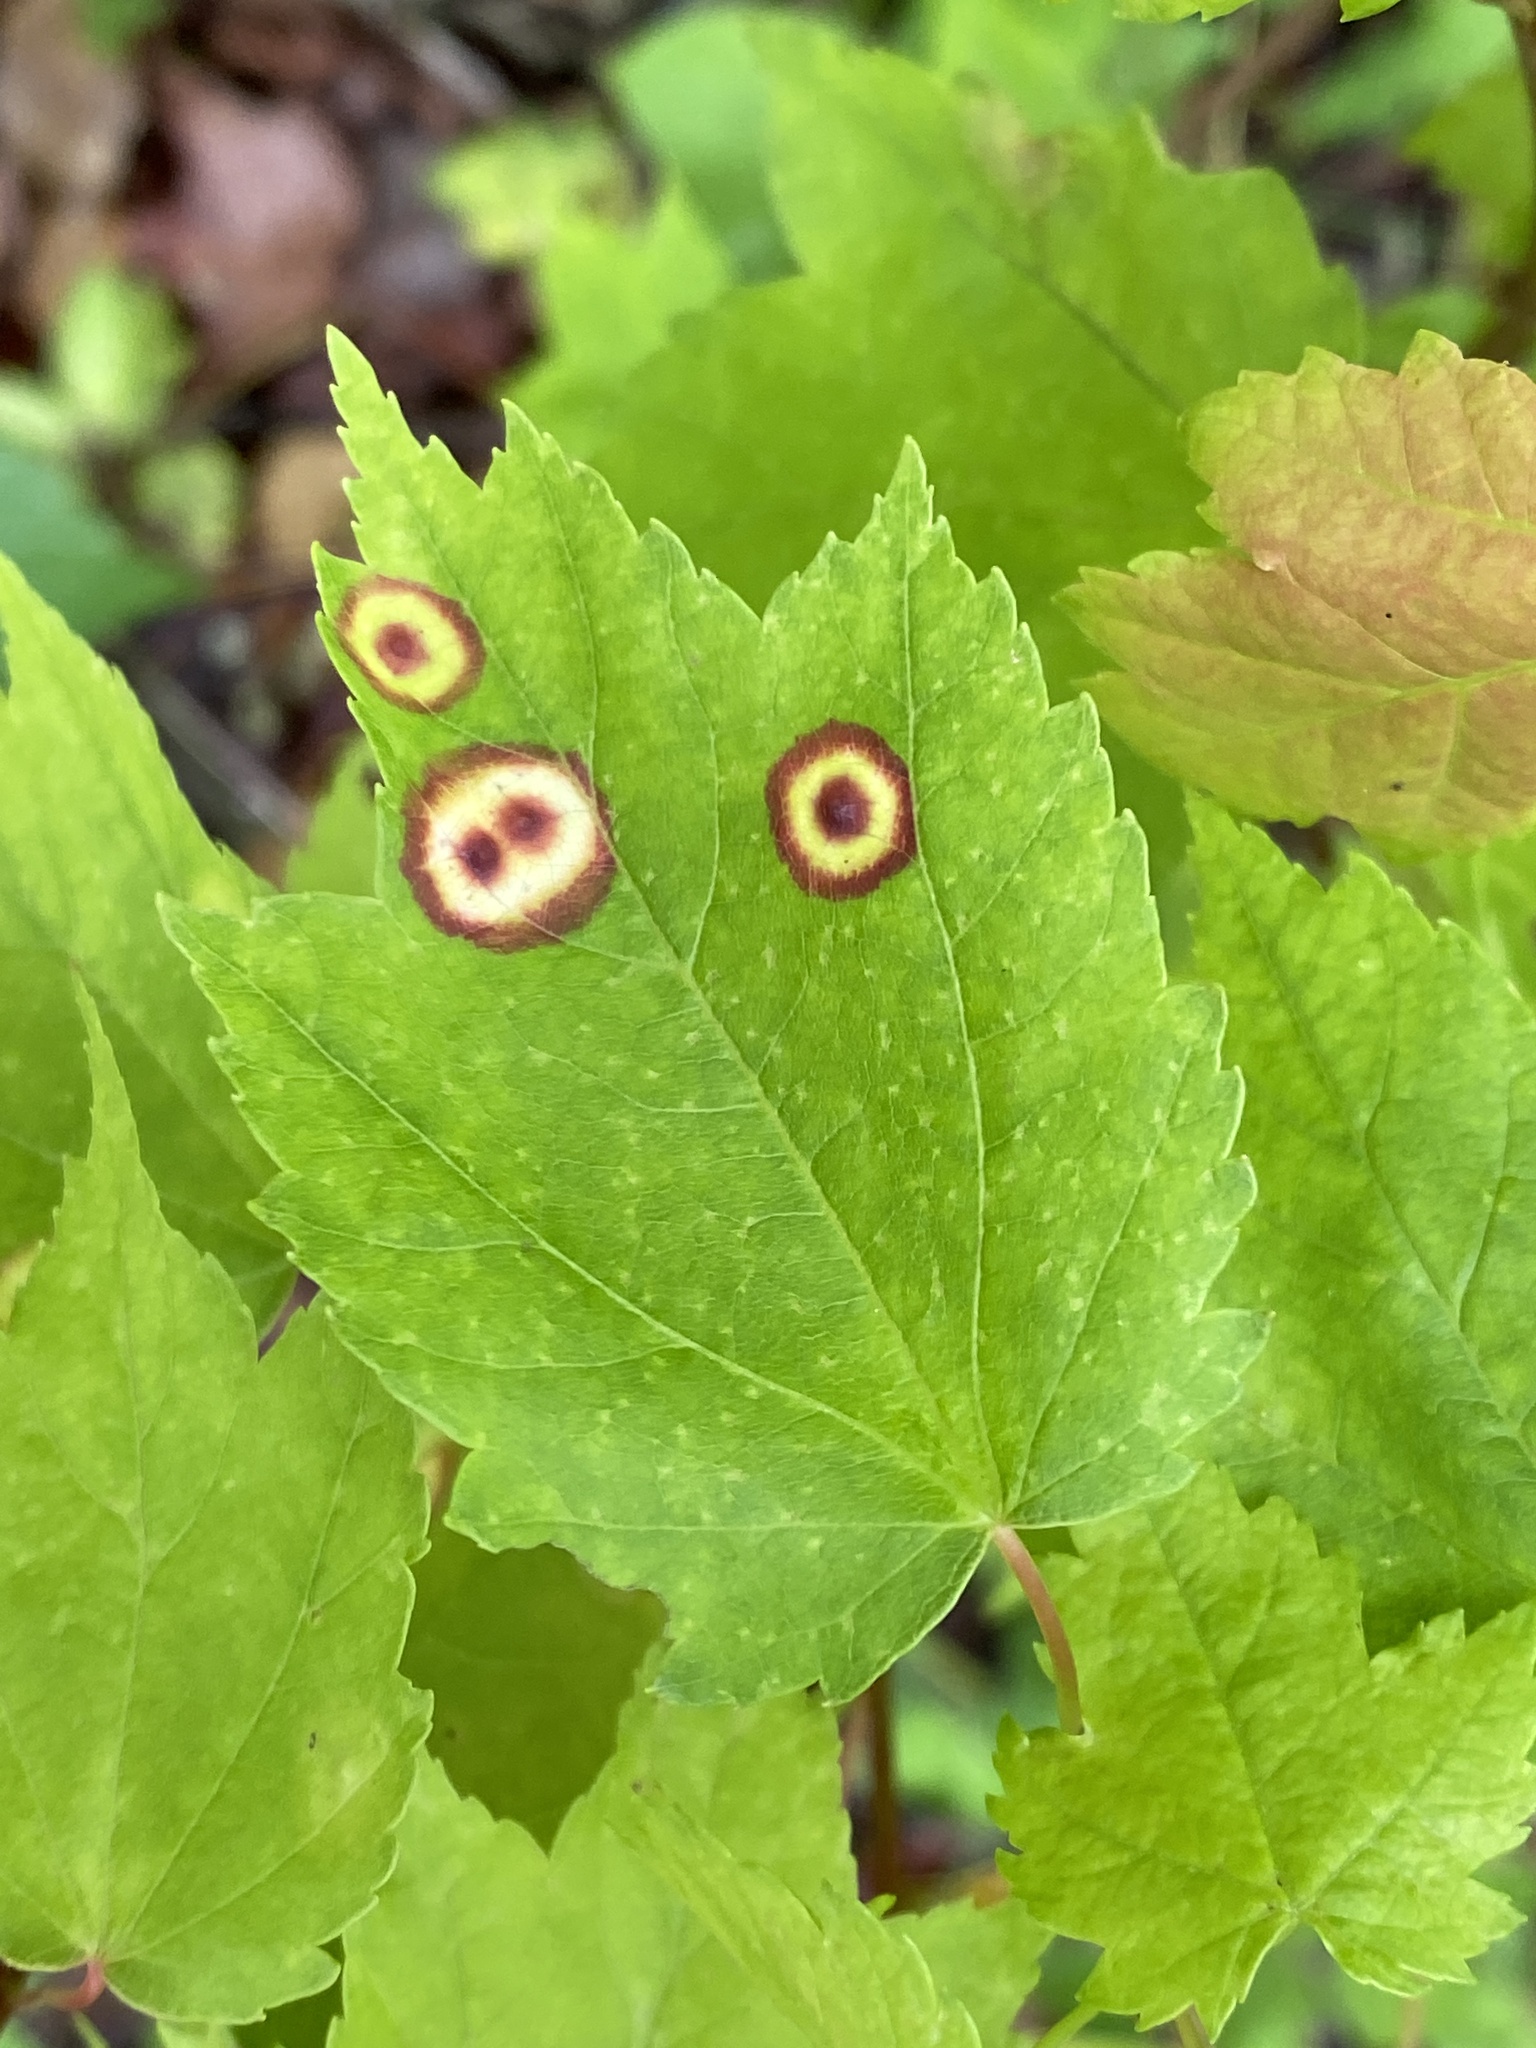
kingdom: Animalia
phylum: Arthropoda
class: Insecta
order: Diptera
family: Cecidomyiidae
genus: Acericecis
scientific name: Acericecis ocellaris
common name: Ocellate gall midge
